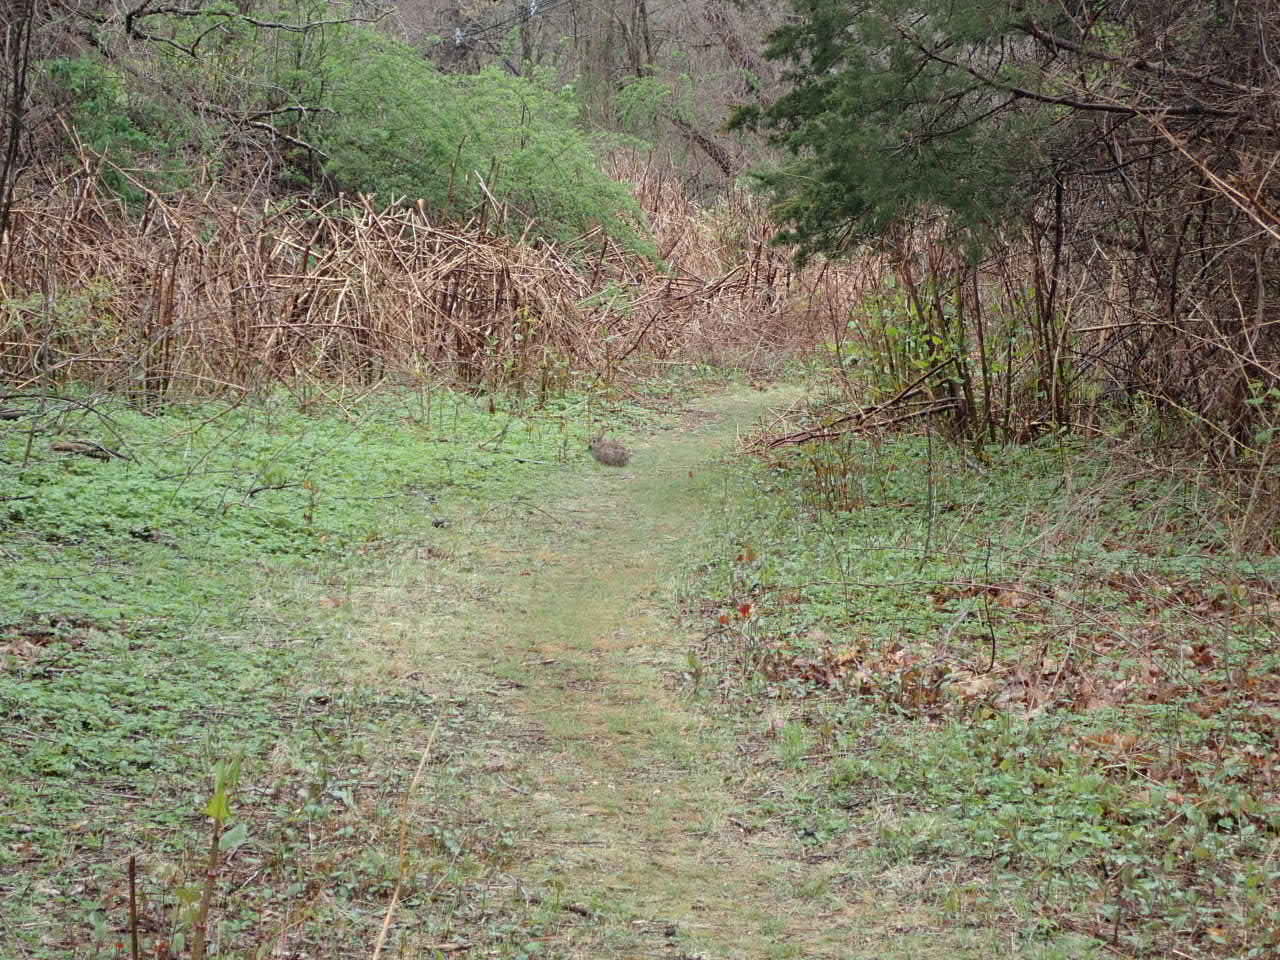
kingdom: Animalia
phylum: Chordata
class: Mammalia
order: Lagomorpha
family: Leporidae
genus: Sylvilagus
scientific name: Sylvilagus floridanus
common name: Eastern cottontail
